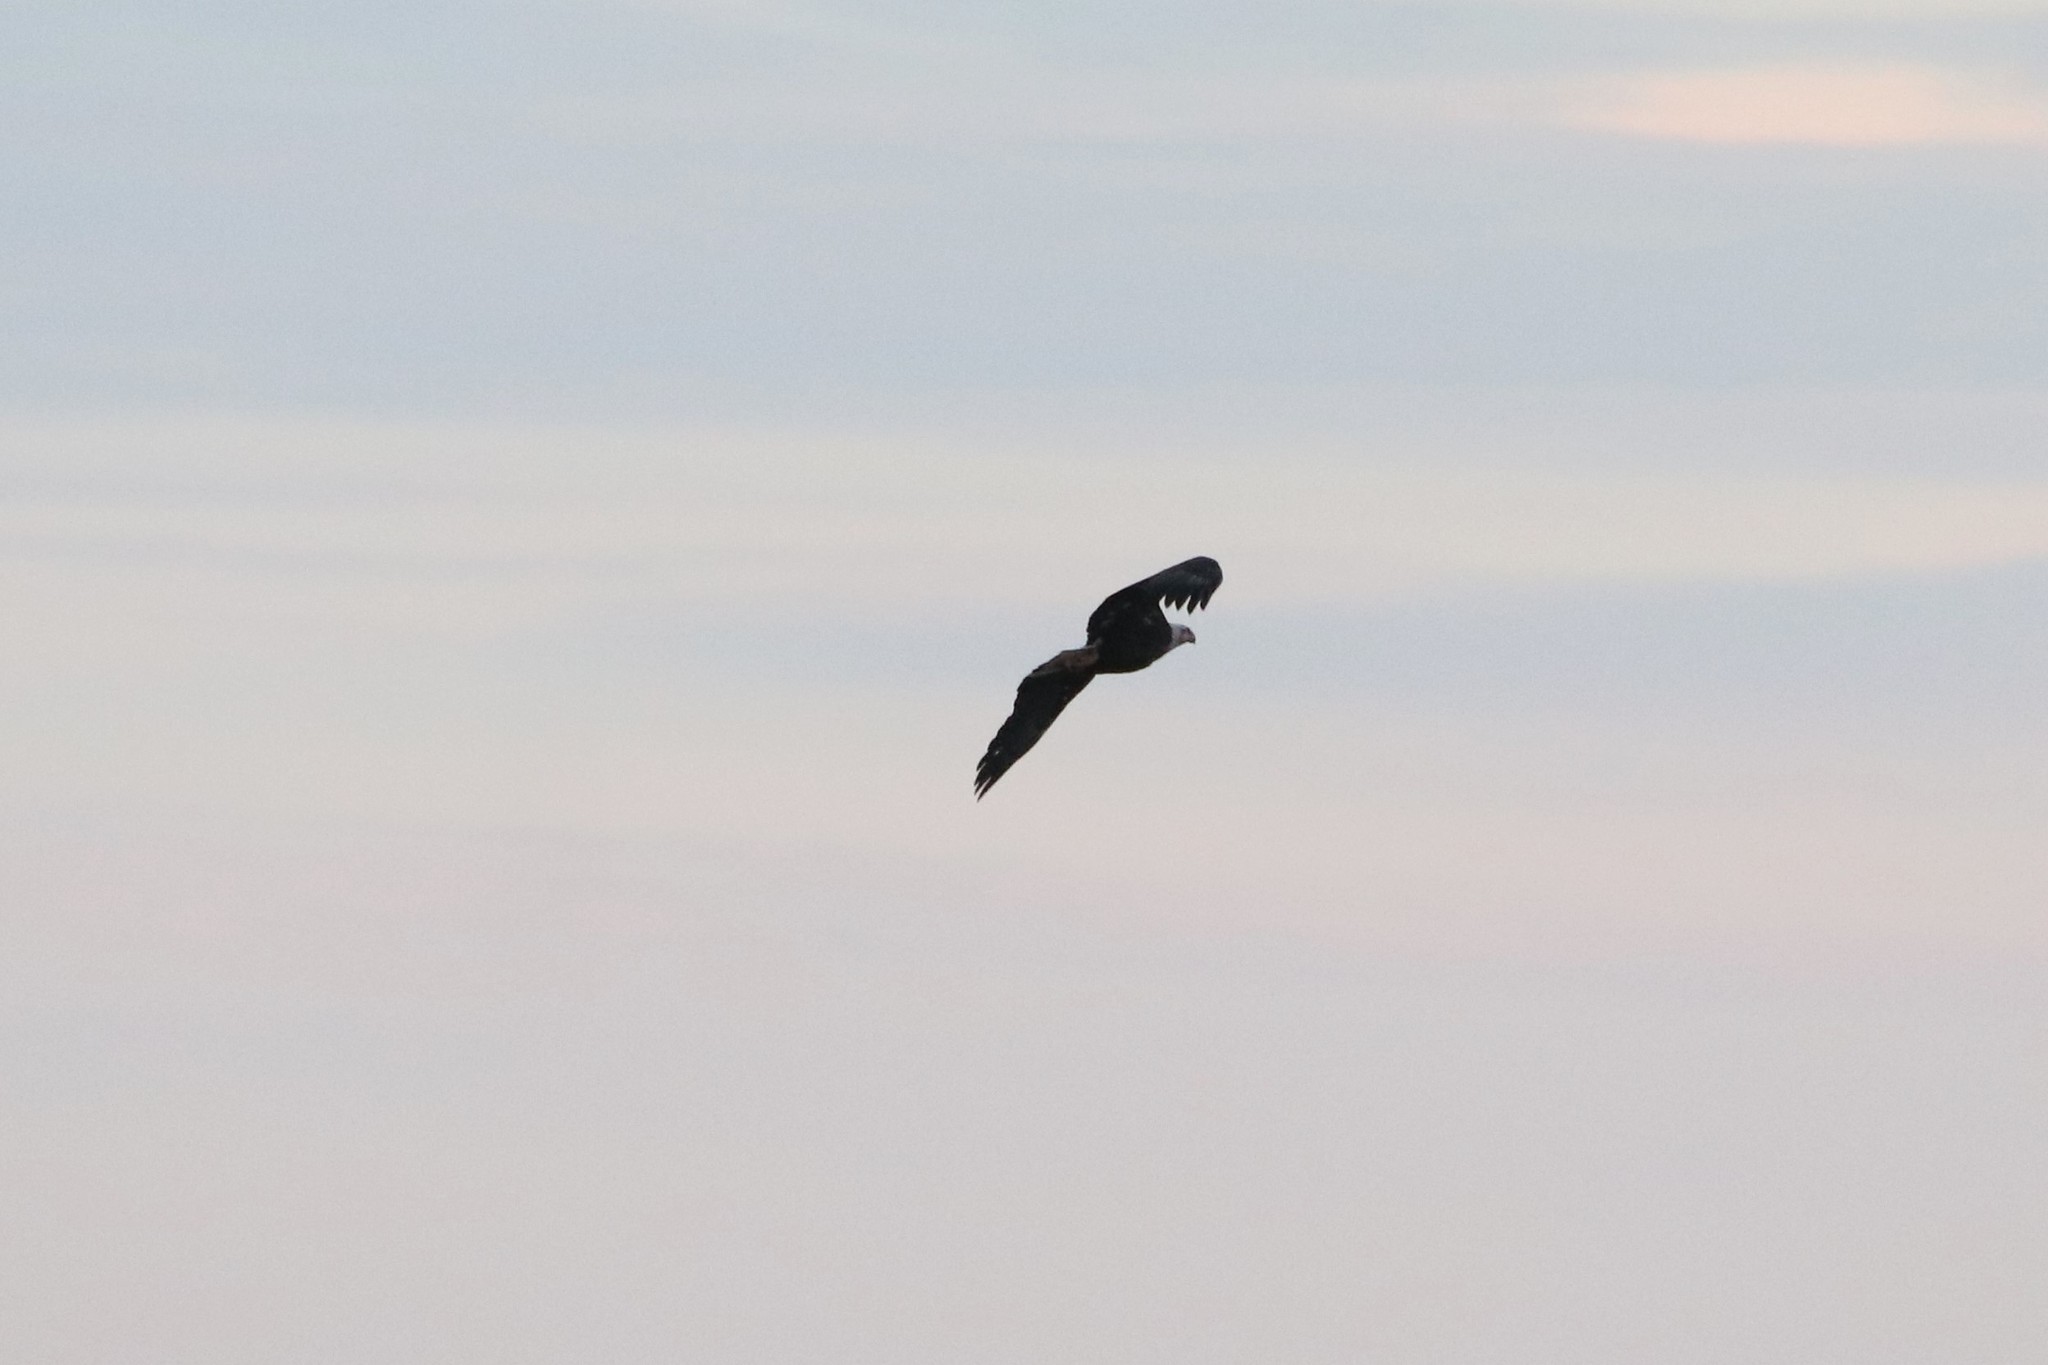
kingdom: Animalia
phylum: Chordata
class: Aves
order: Accipitriformes
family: Accipitridae
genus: Haliaeetus
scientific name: Haliaeetus leucocephalus
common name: Bald eagle
